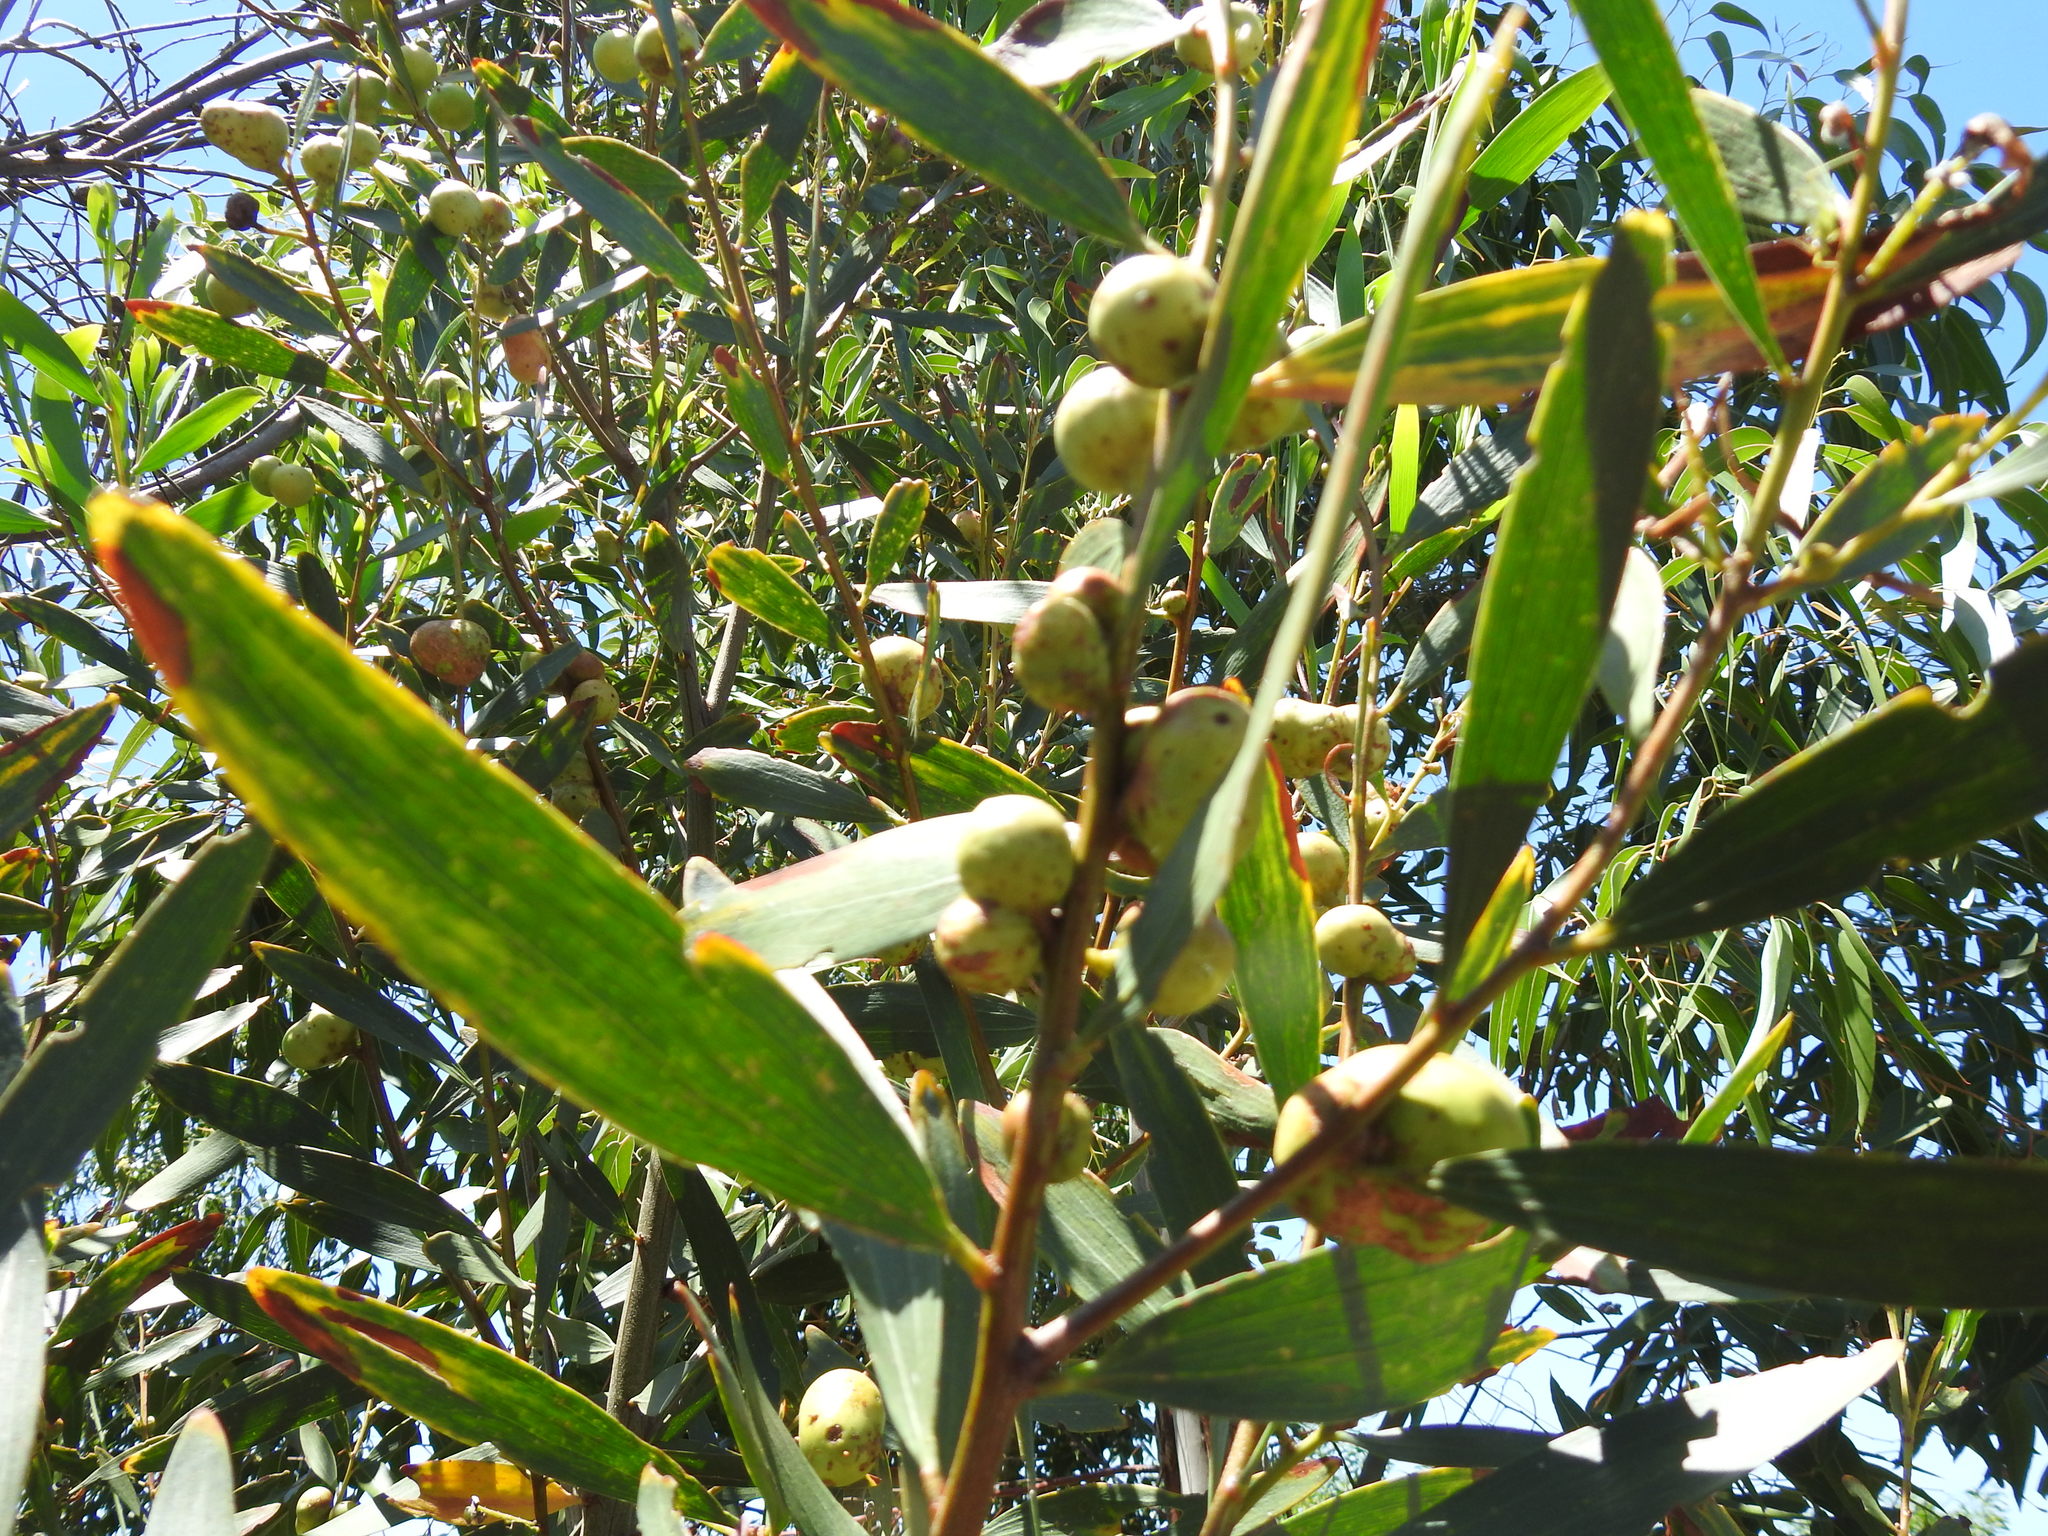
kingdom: Plantae
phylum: Tracheophyta
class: Magnoliopsida
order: Fabales
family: Fabaceae
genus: Acacia
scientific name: Acacia longifolia
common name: Sydney golden wattle
